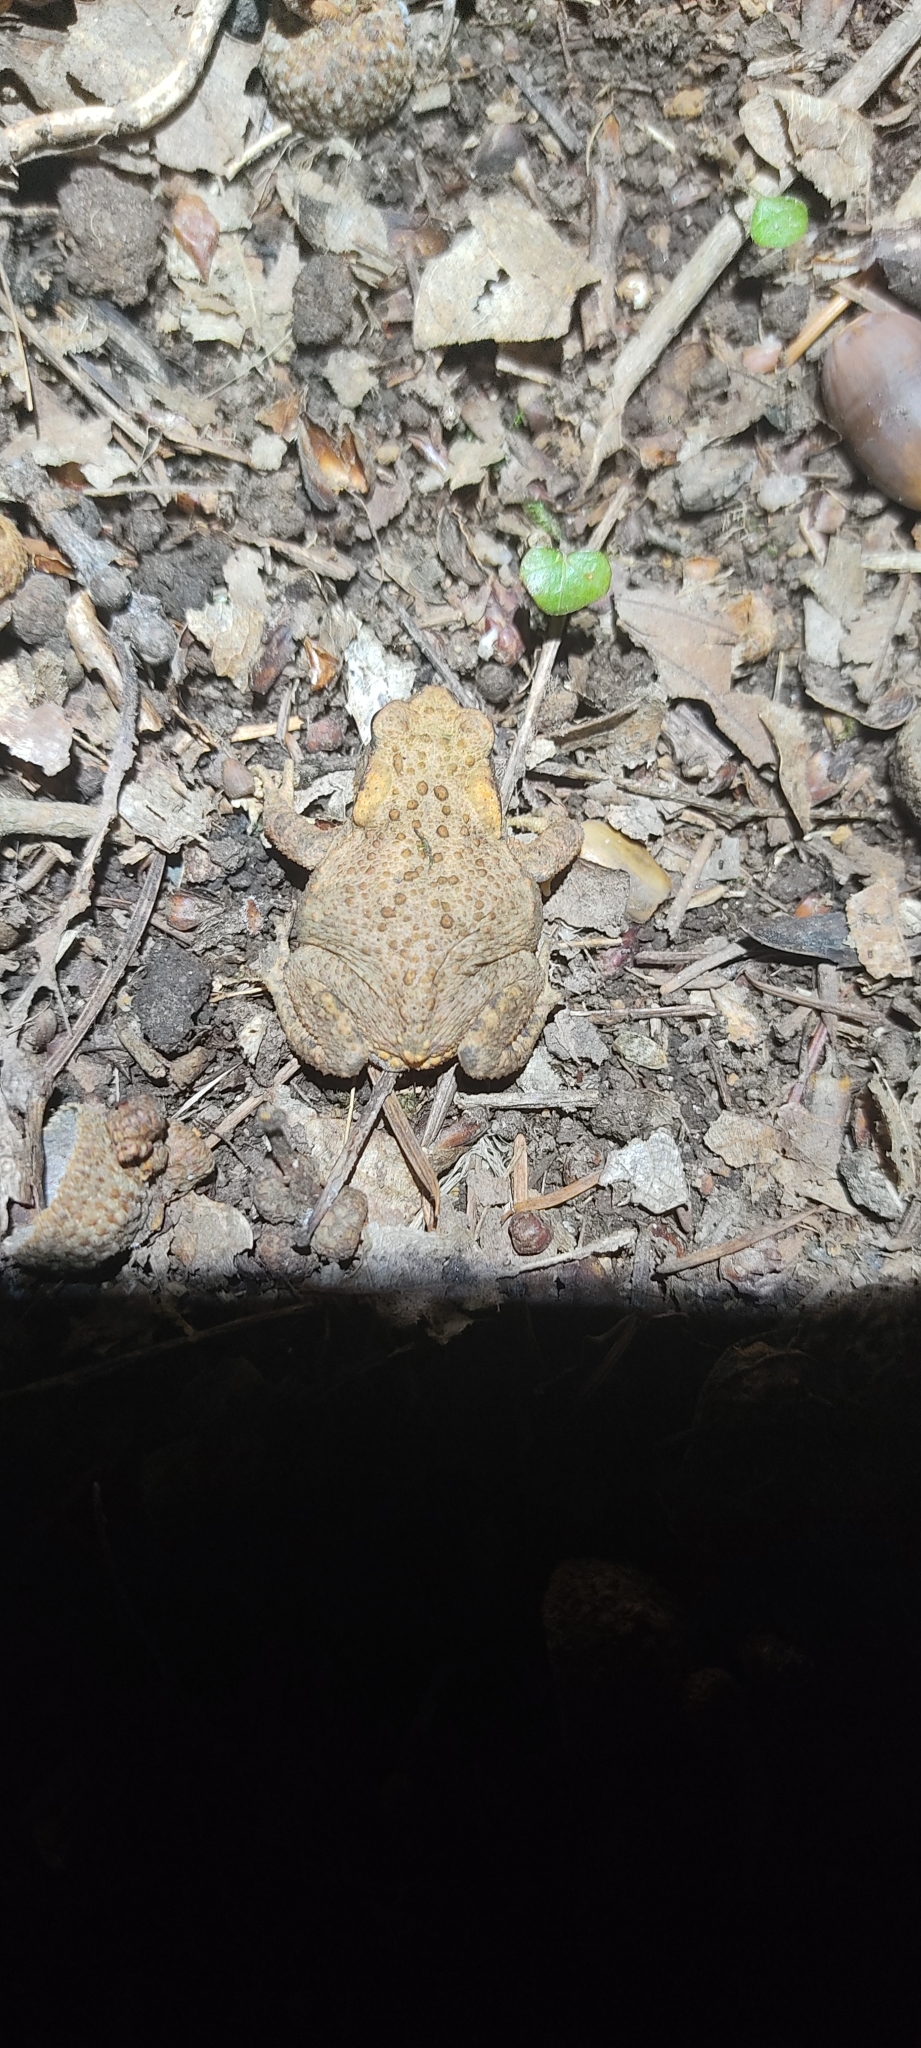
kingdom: Animalia
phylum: Chordata
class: Amphibia
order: Anura
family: Bufonidae
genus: Bufo
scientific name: Bufo spinosus
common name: Western common toad
